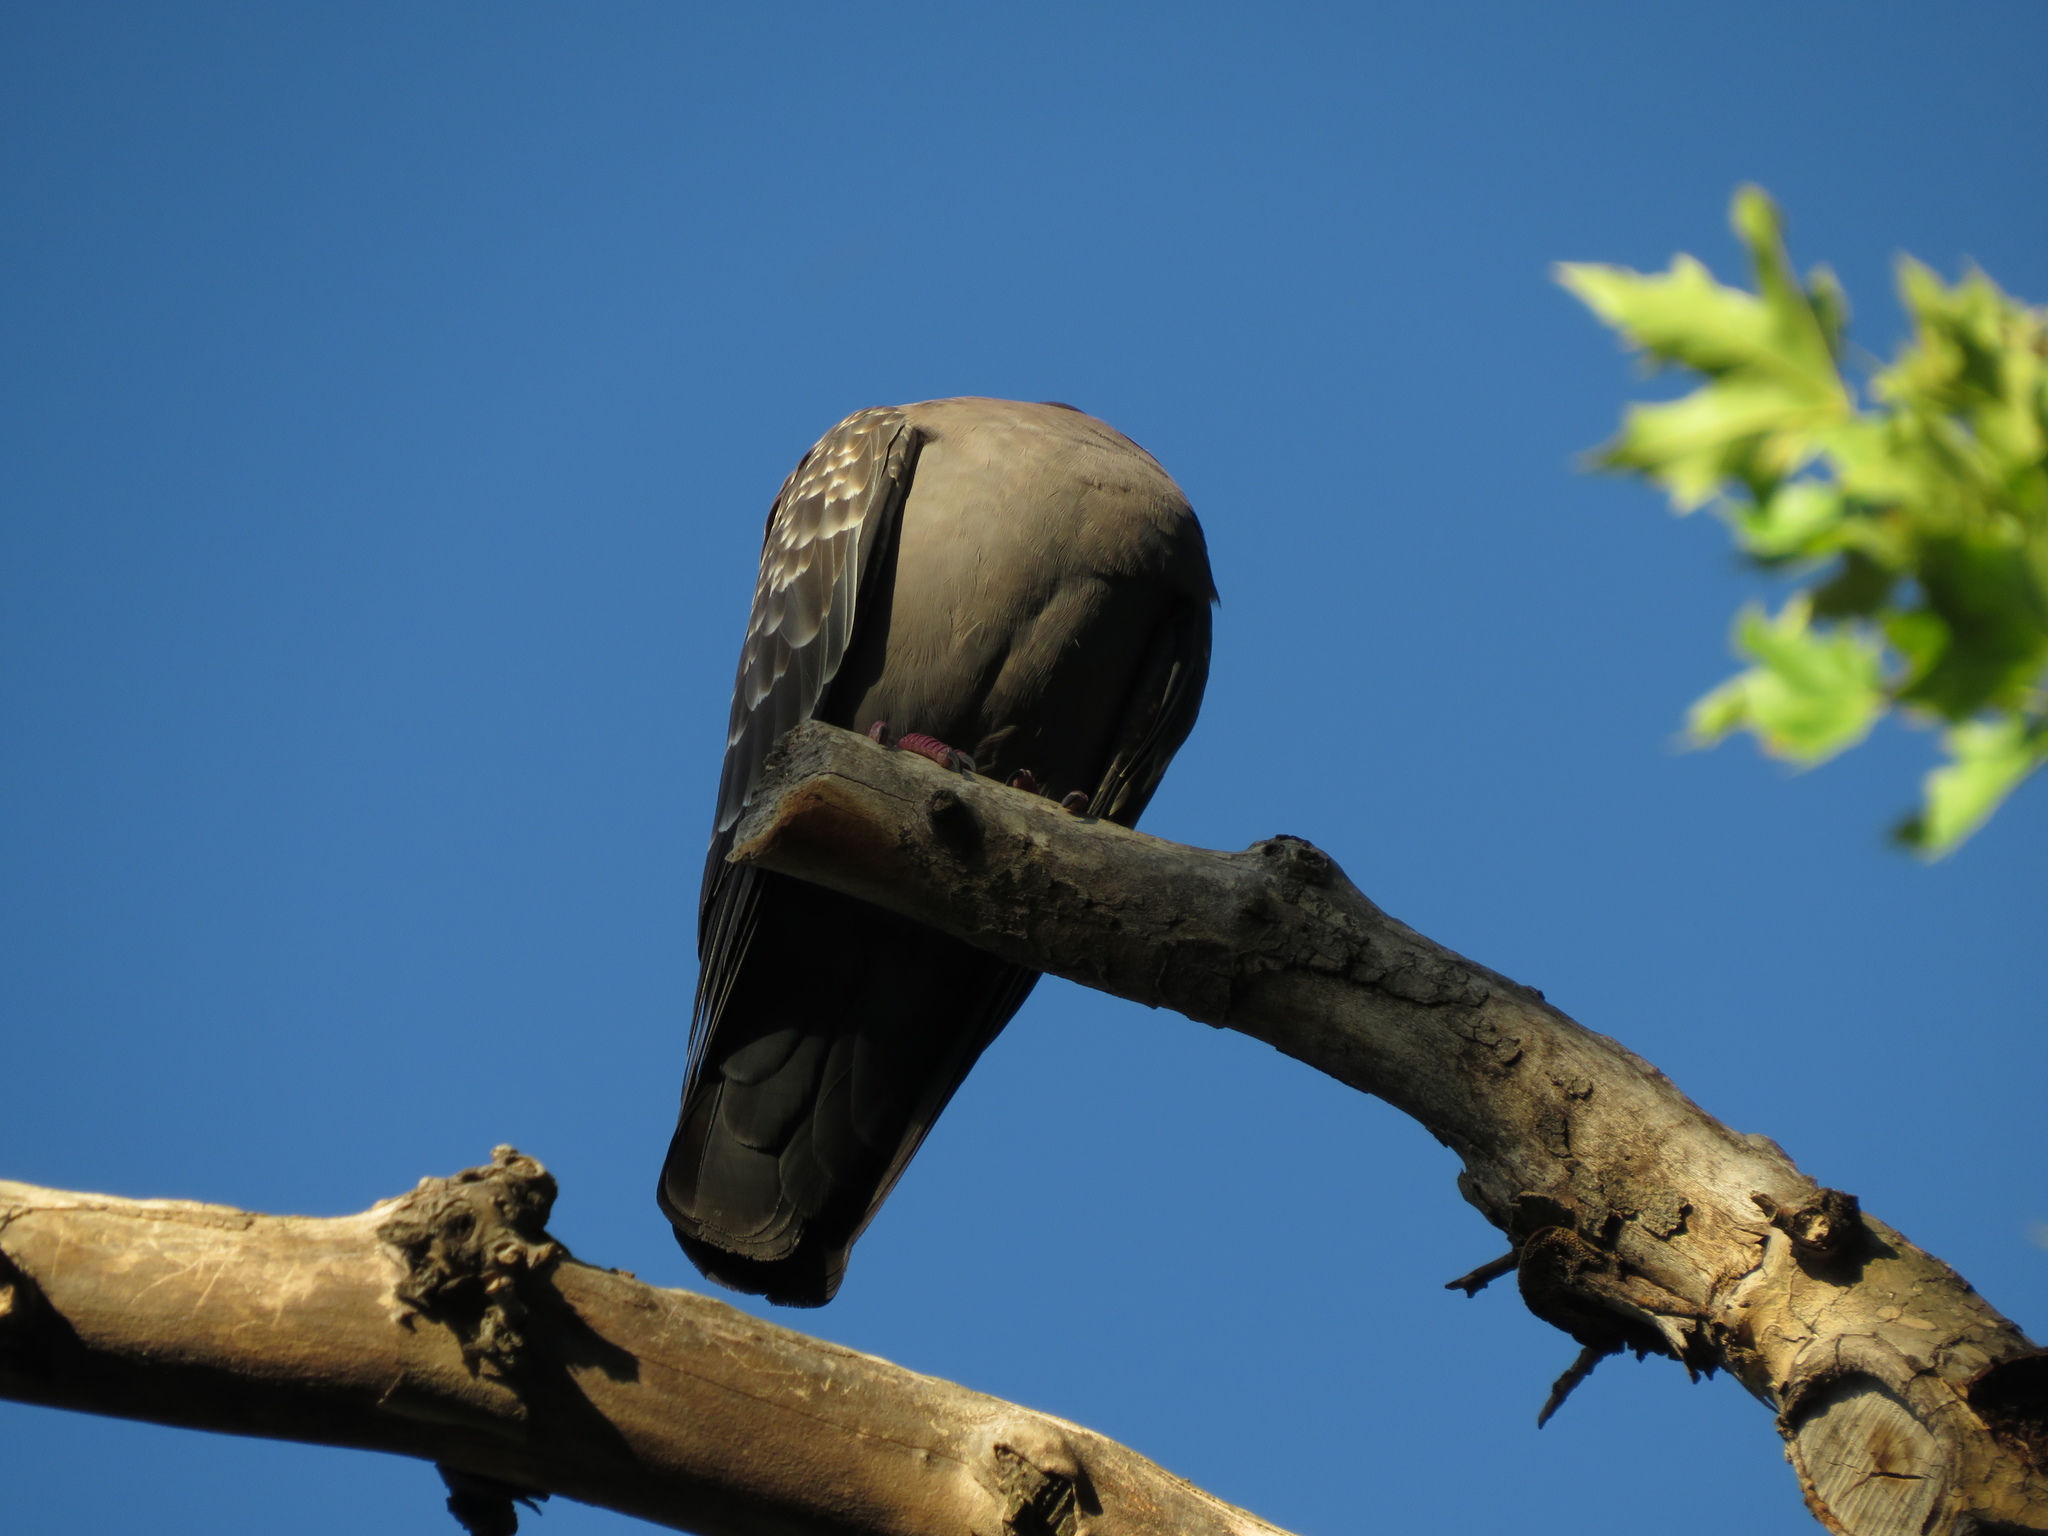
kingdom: Animalia
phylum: Chordata
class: Aves
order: Columbiformes
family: Columbidae
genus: Patagioenas
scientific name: Patagioenas maculosa
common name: Spot-winged pigeon
